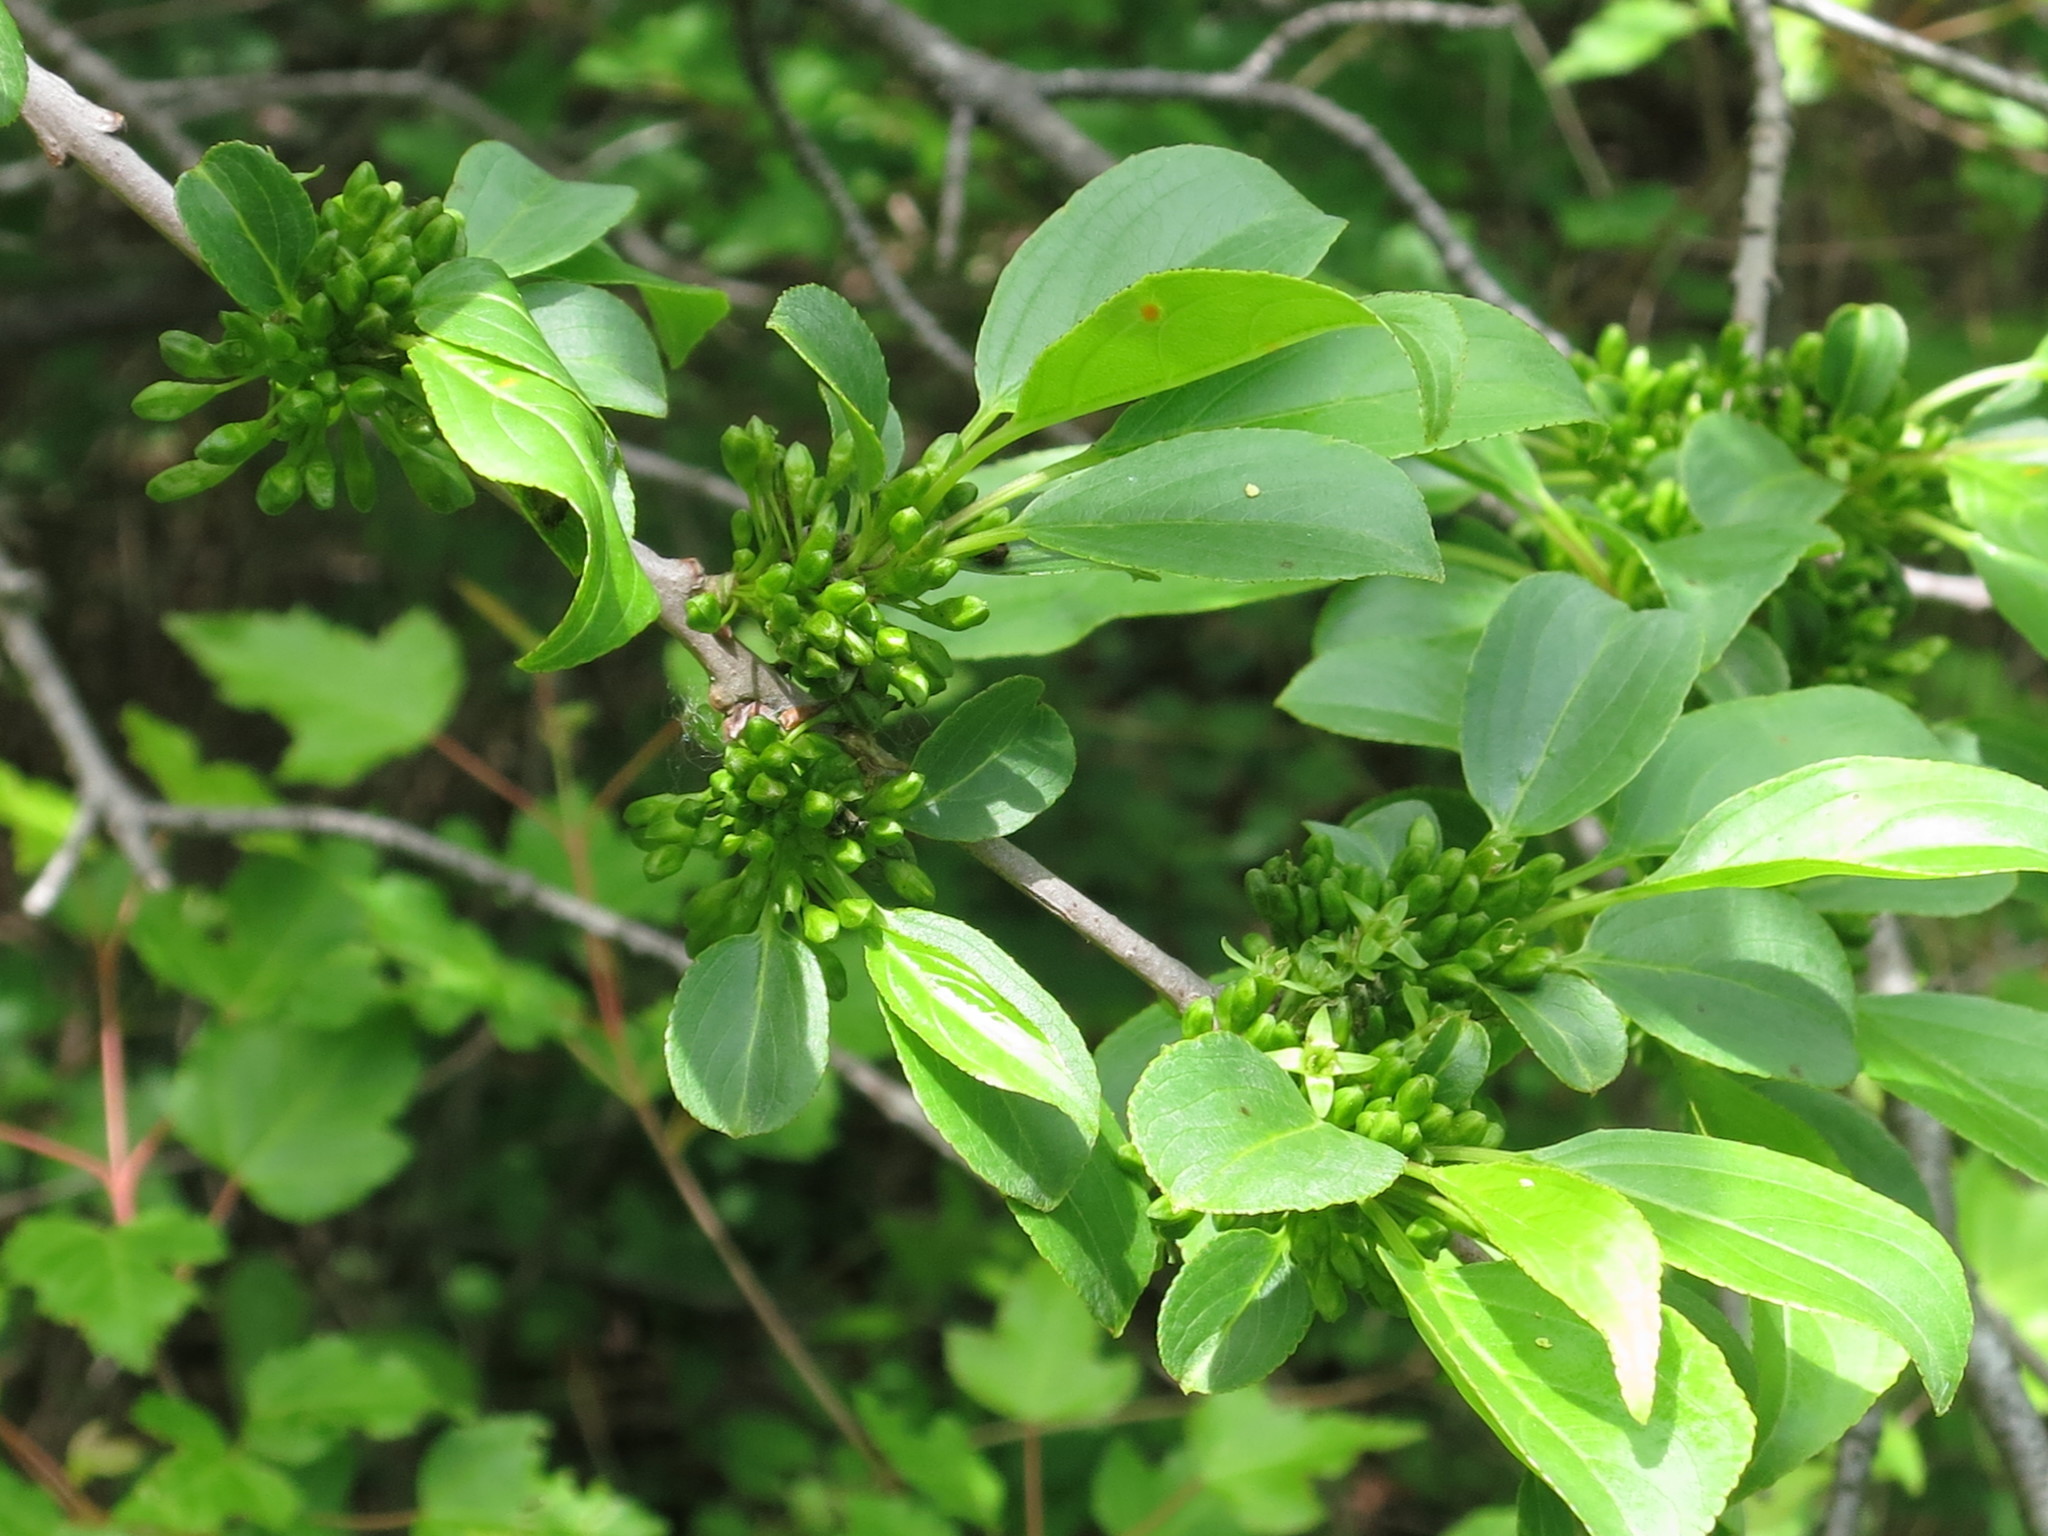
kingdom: Plantae
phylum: Tracheophyta
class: Magnoliopsida
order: Rosales
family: Rhamnaceae
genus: Rhamnus
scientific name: Rhamnus virgata
